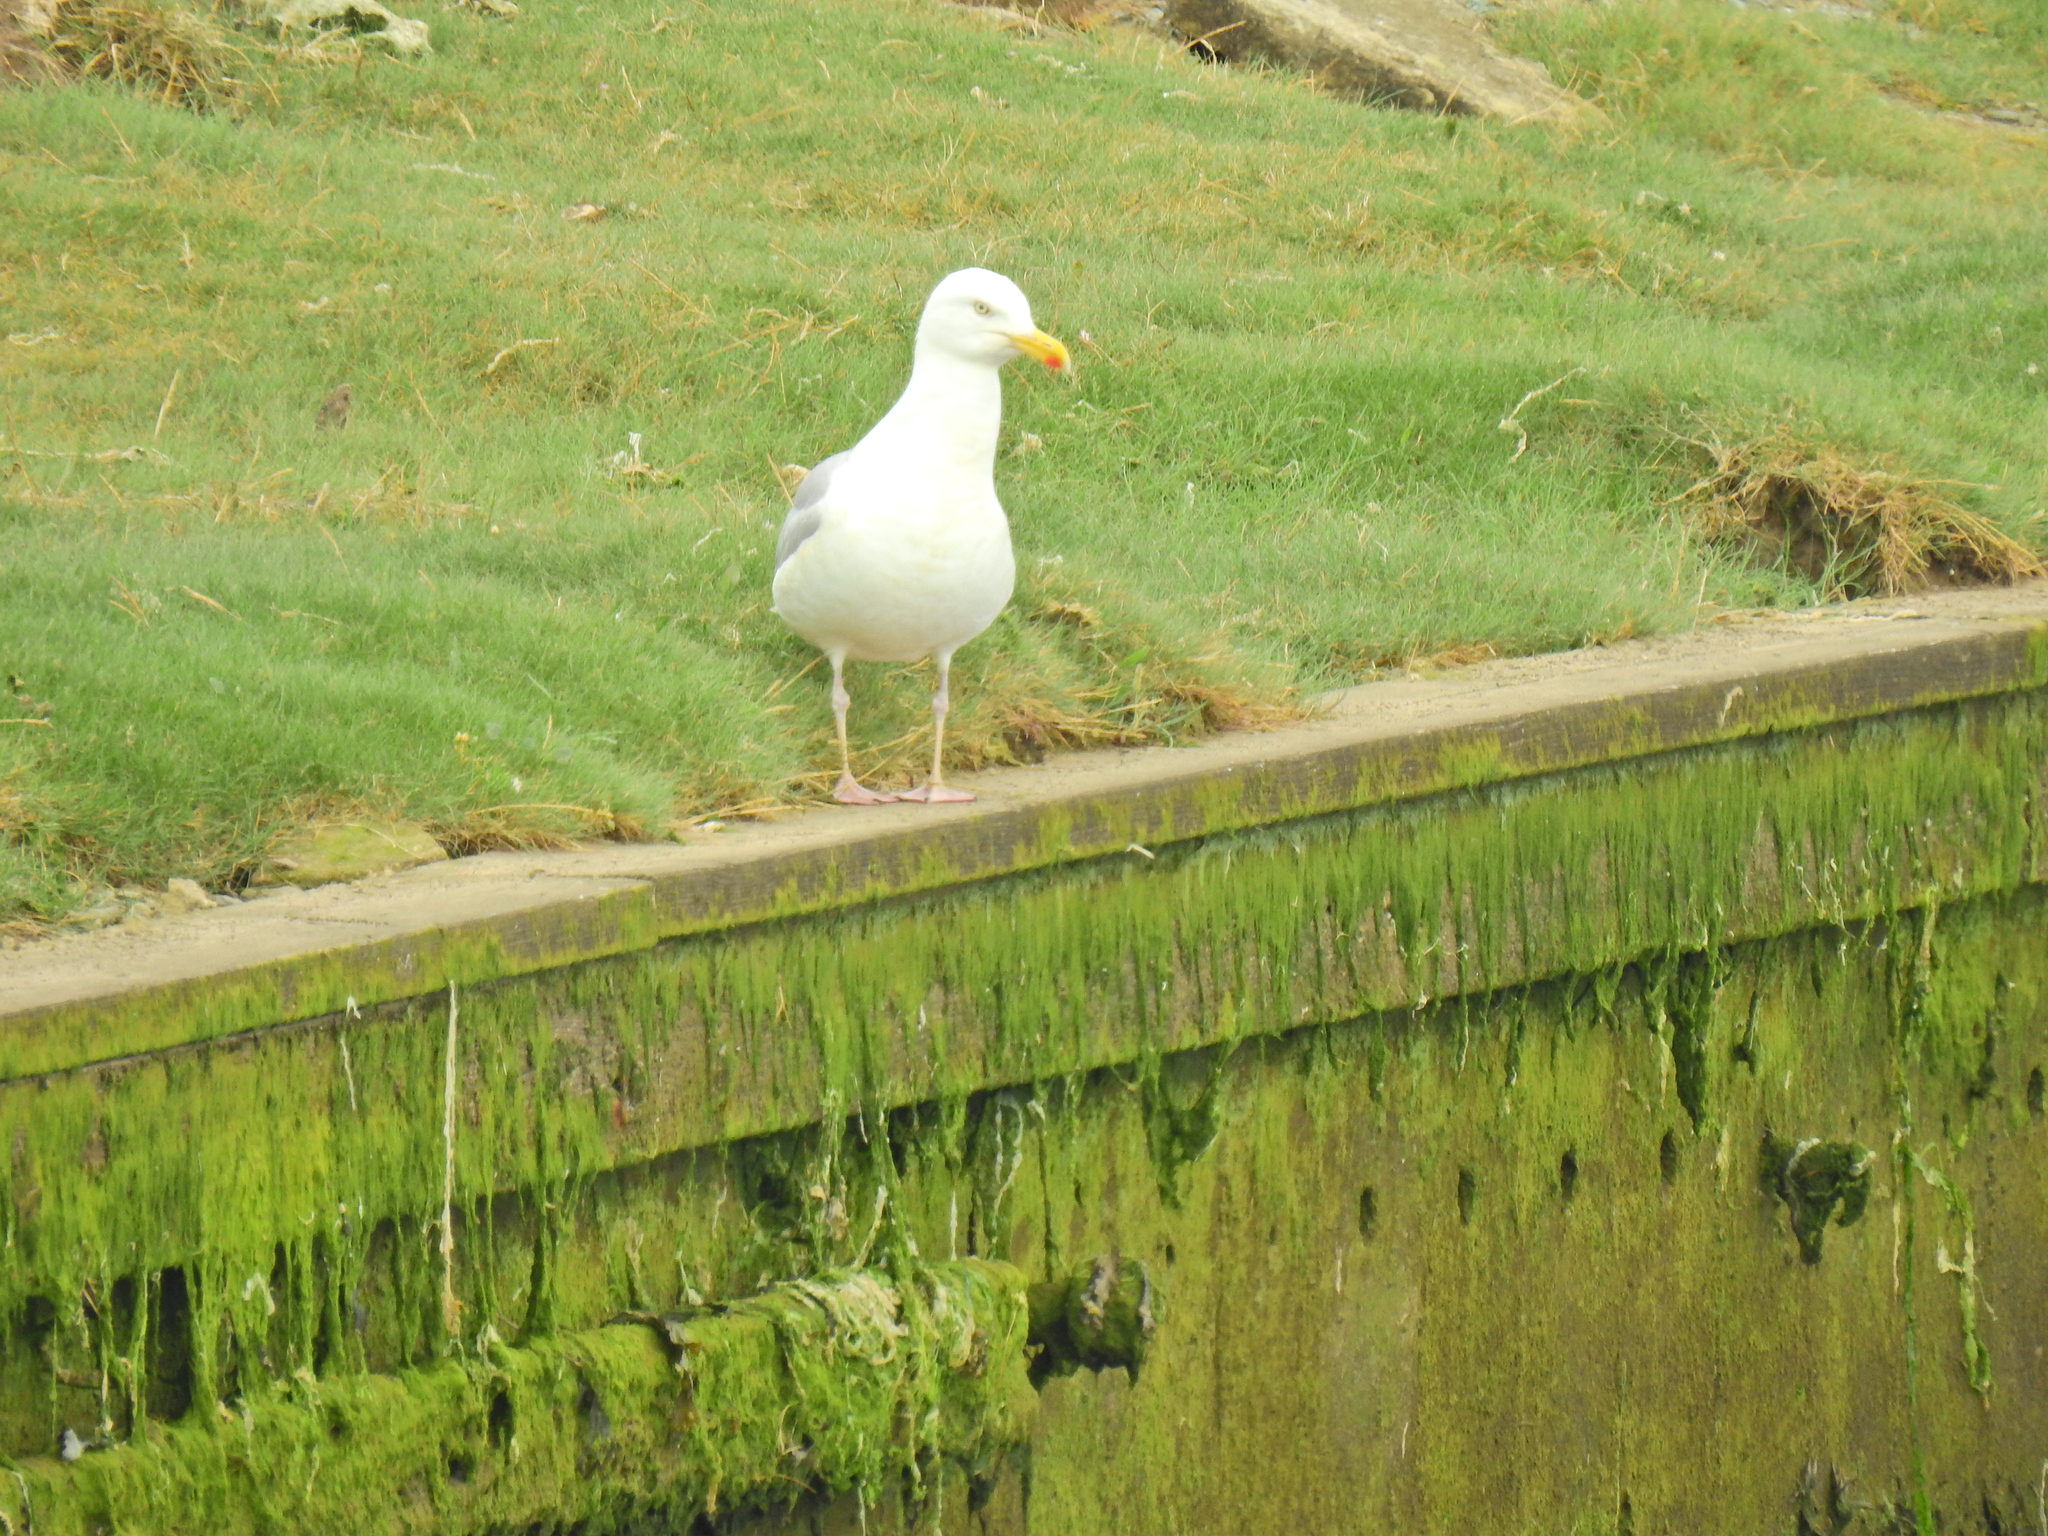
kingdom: Animalia
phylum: Chordata
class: Aves
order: Charadriiformes
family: Laridae
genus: Larus
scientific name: Larus argentatus
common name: Herring gull
